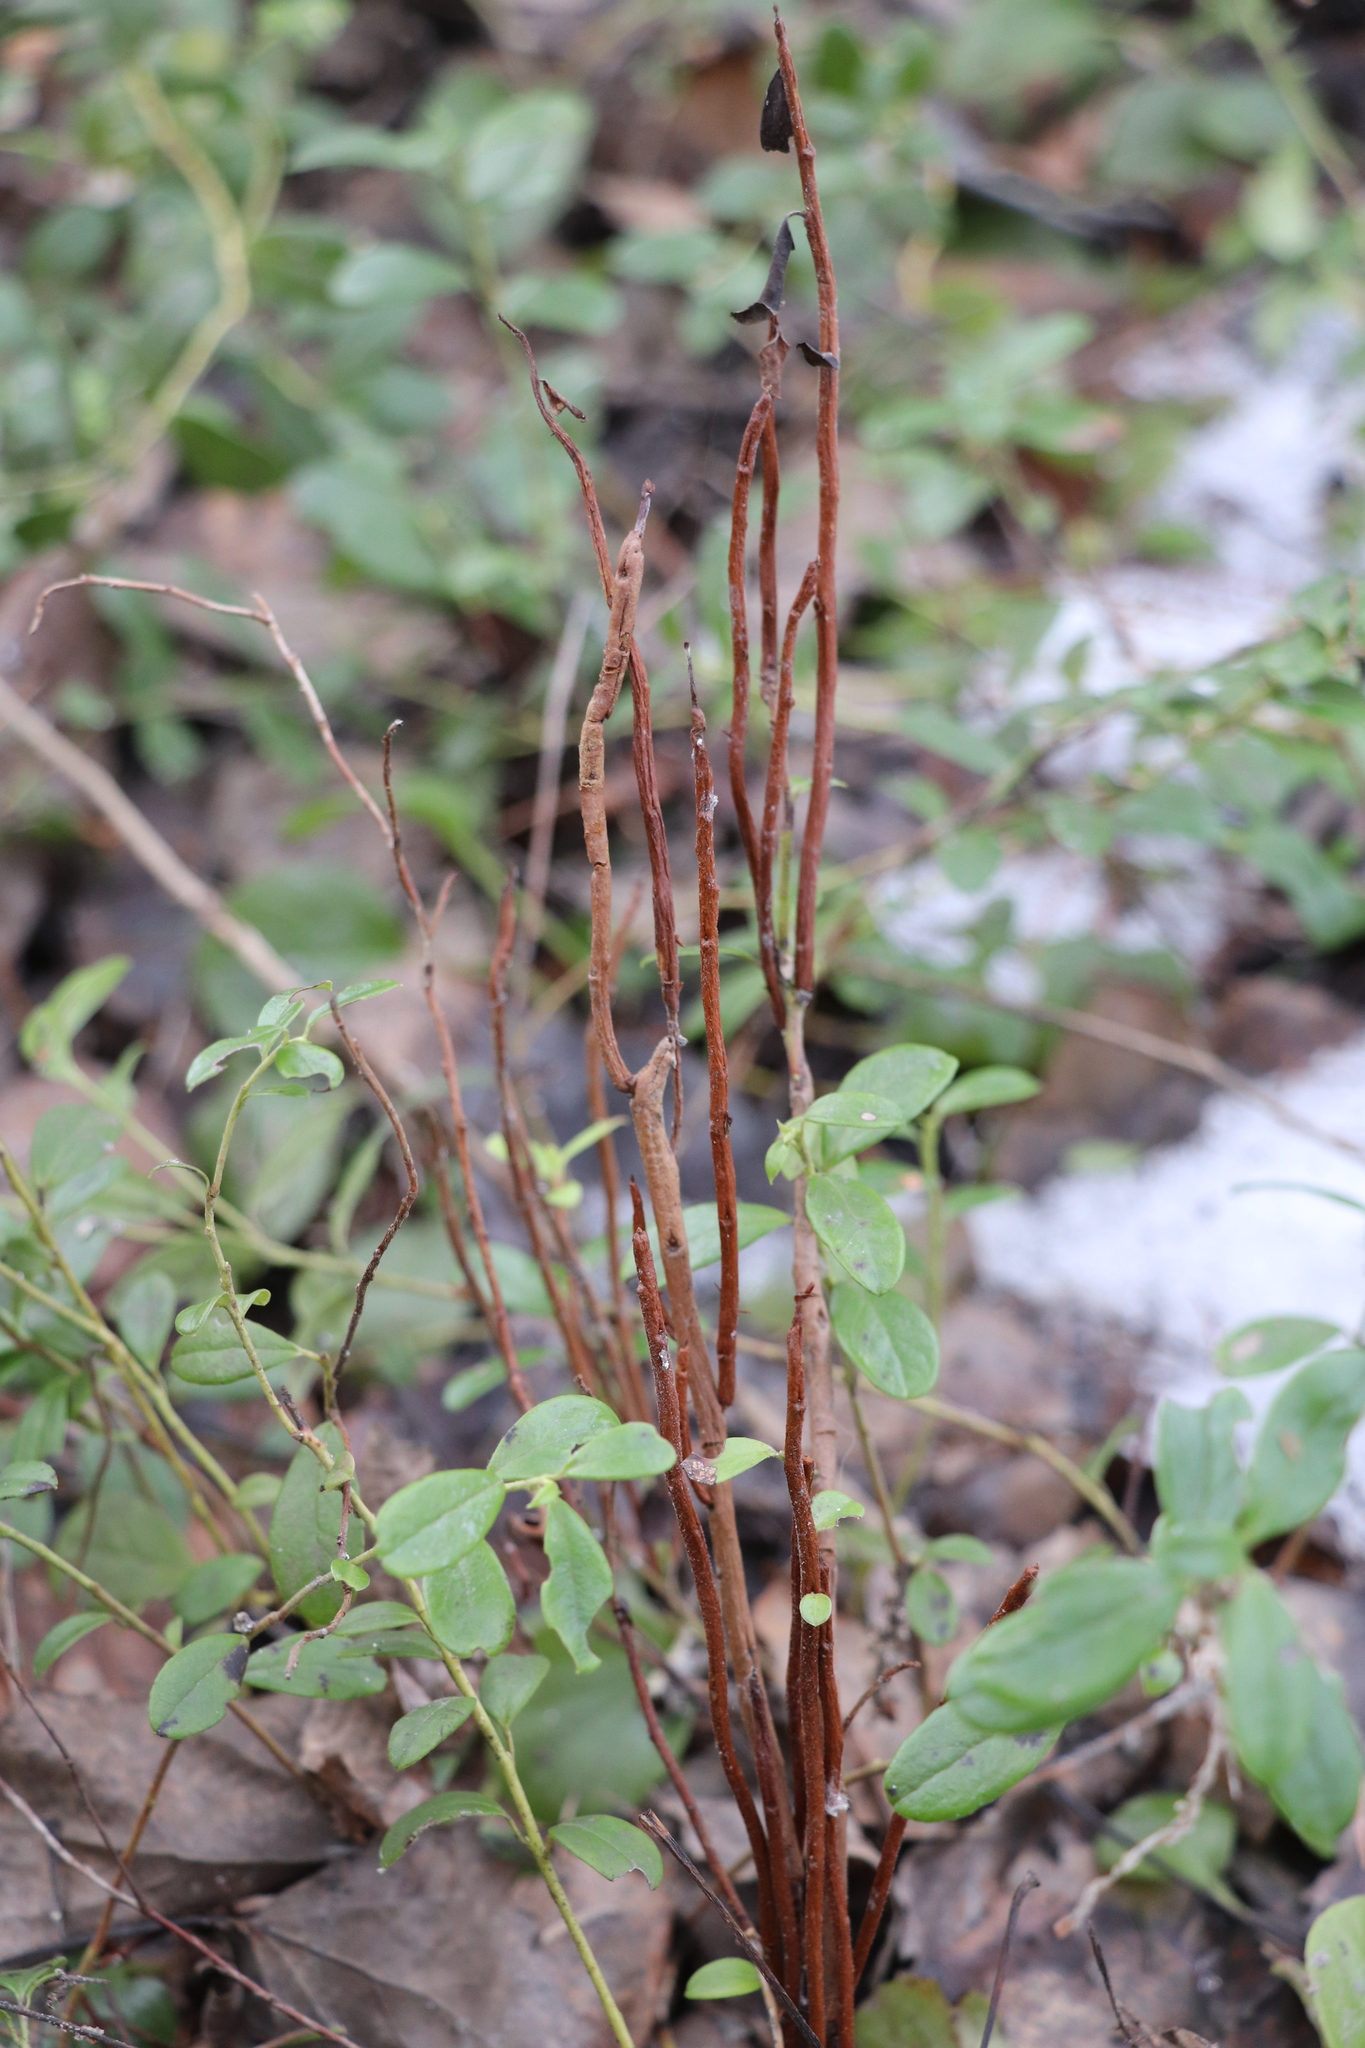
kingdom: Fungi
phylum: Basidiomycota
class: Pucciniomycetes
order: Pucciniales
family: Pucciniastraceae
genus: Calyptospora
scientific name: Calyptospora columnaris
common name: Huckleberry broom rust fungus
